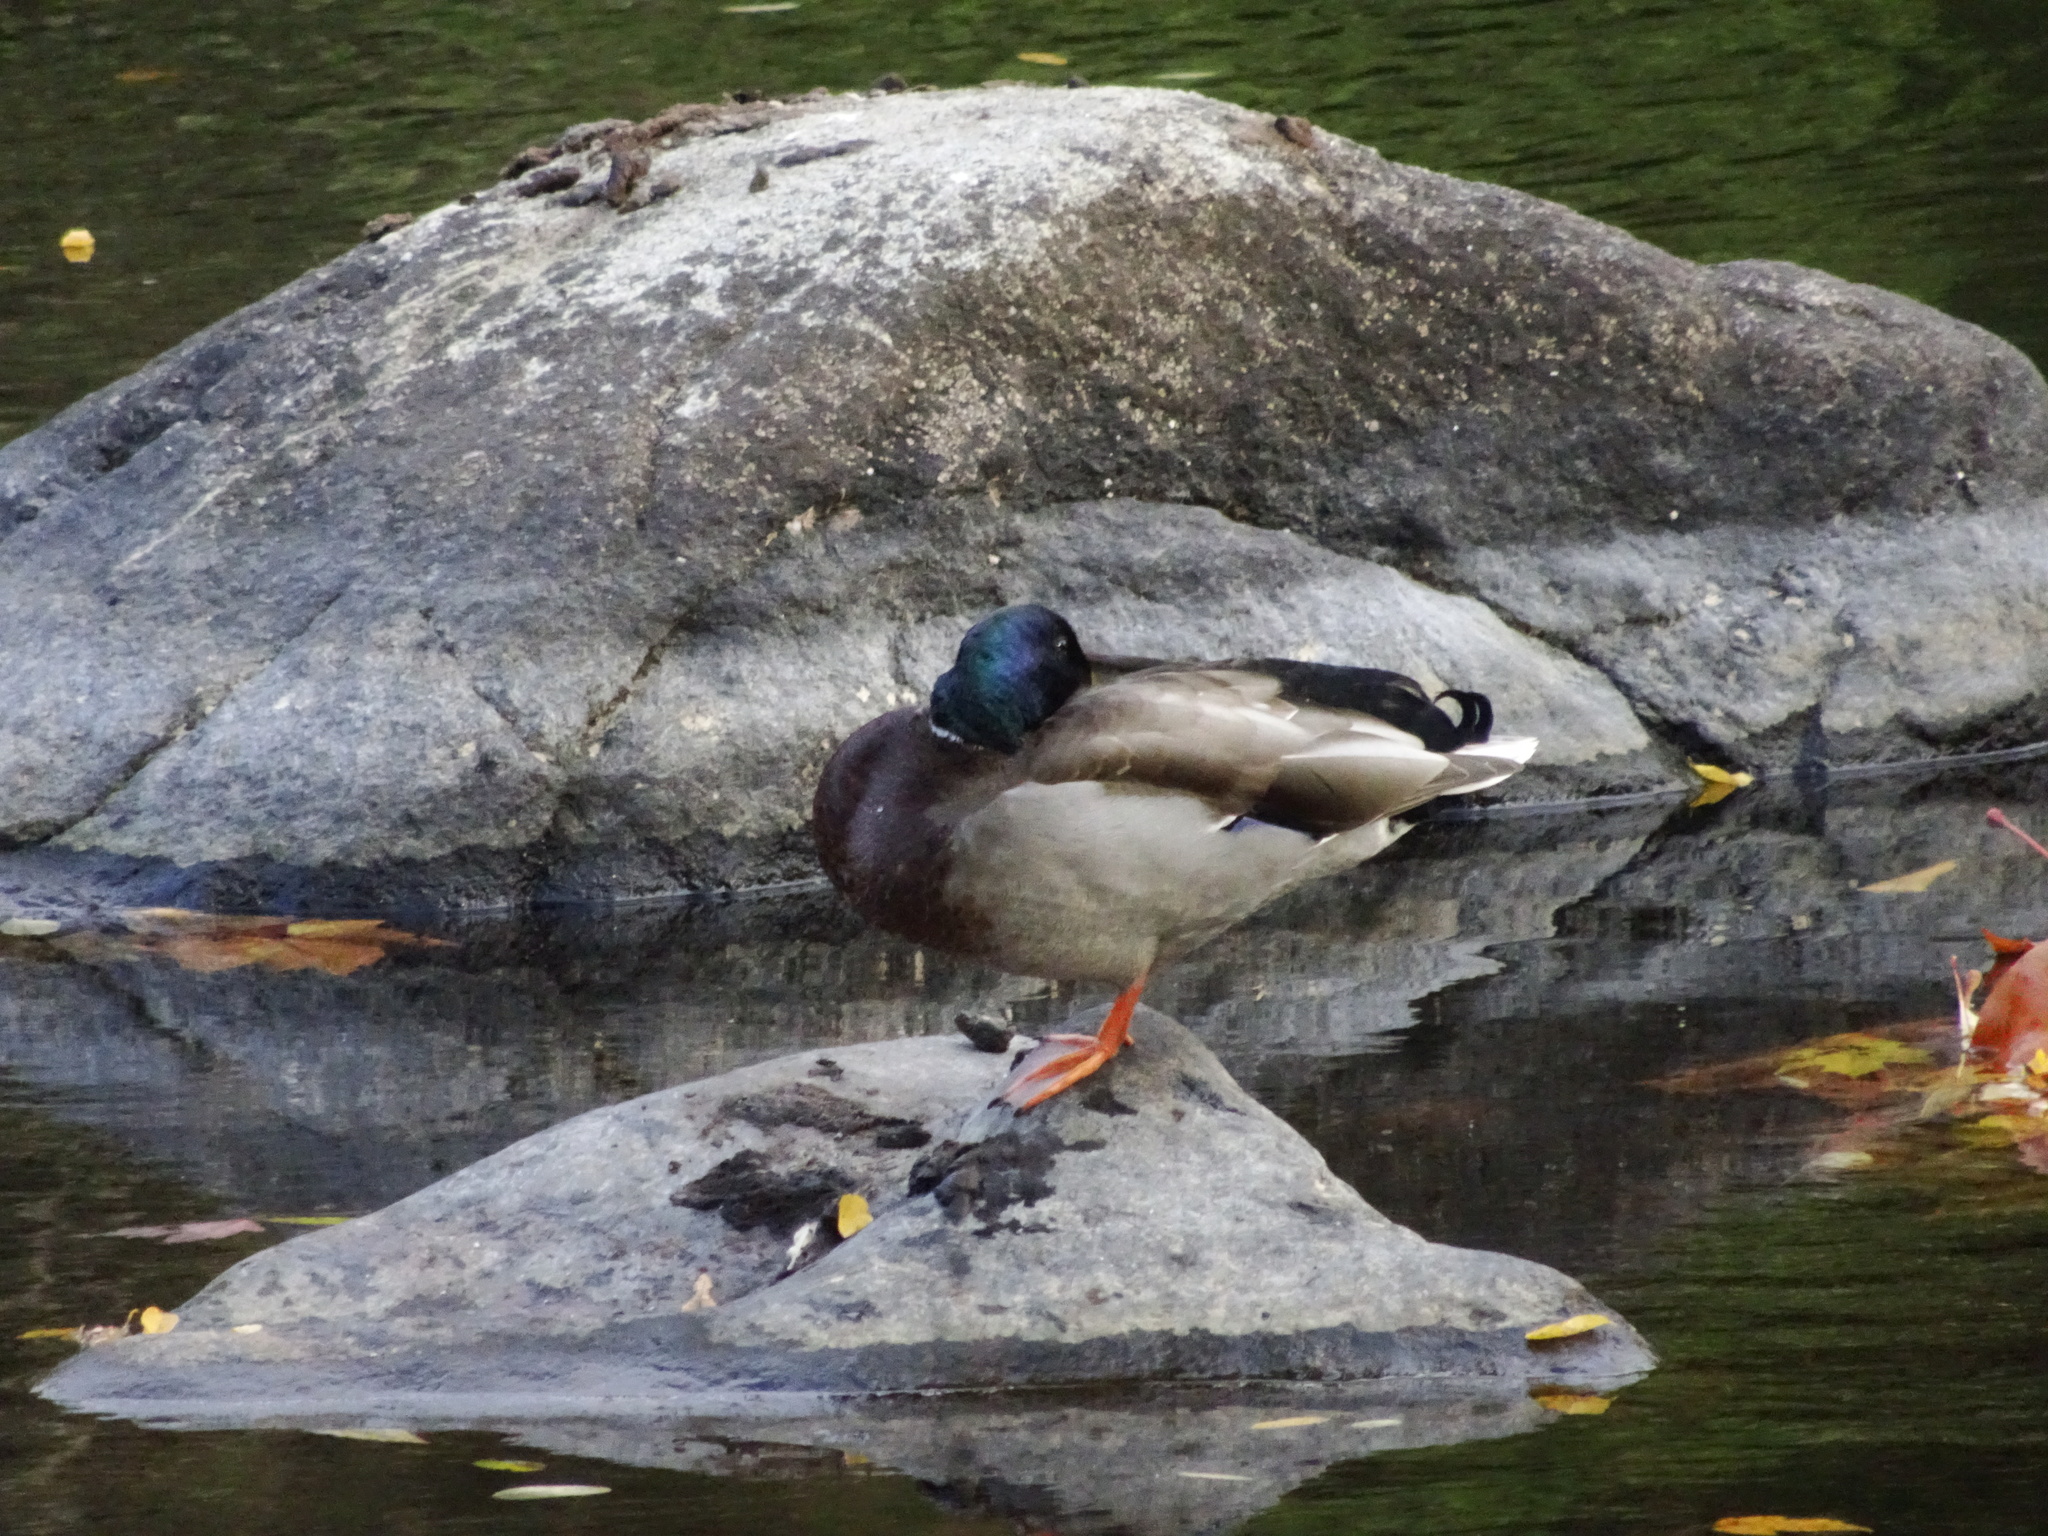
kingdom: Animalia
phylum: Chordata
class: Aves
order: Anseriformes
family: Anatidae
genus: Anas
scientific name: Anas platyrhynchos
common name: Mallard
